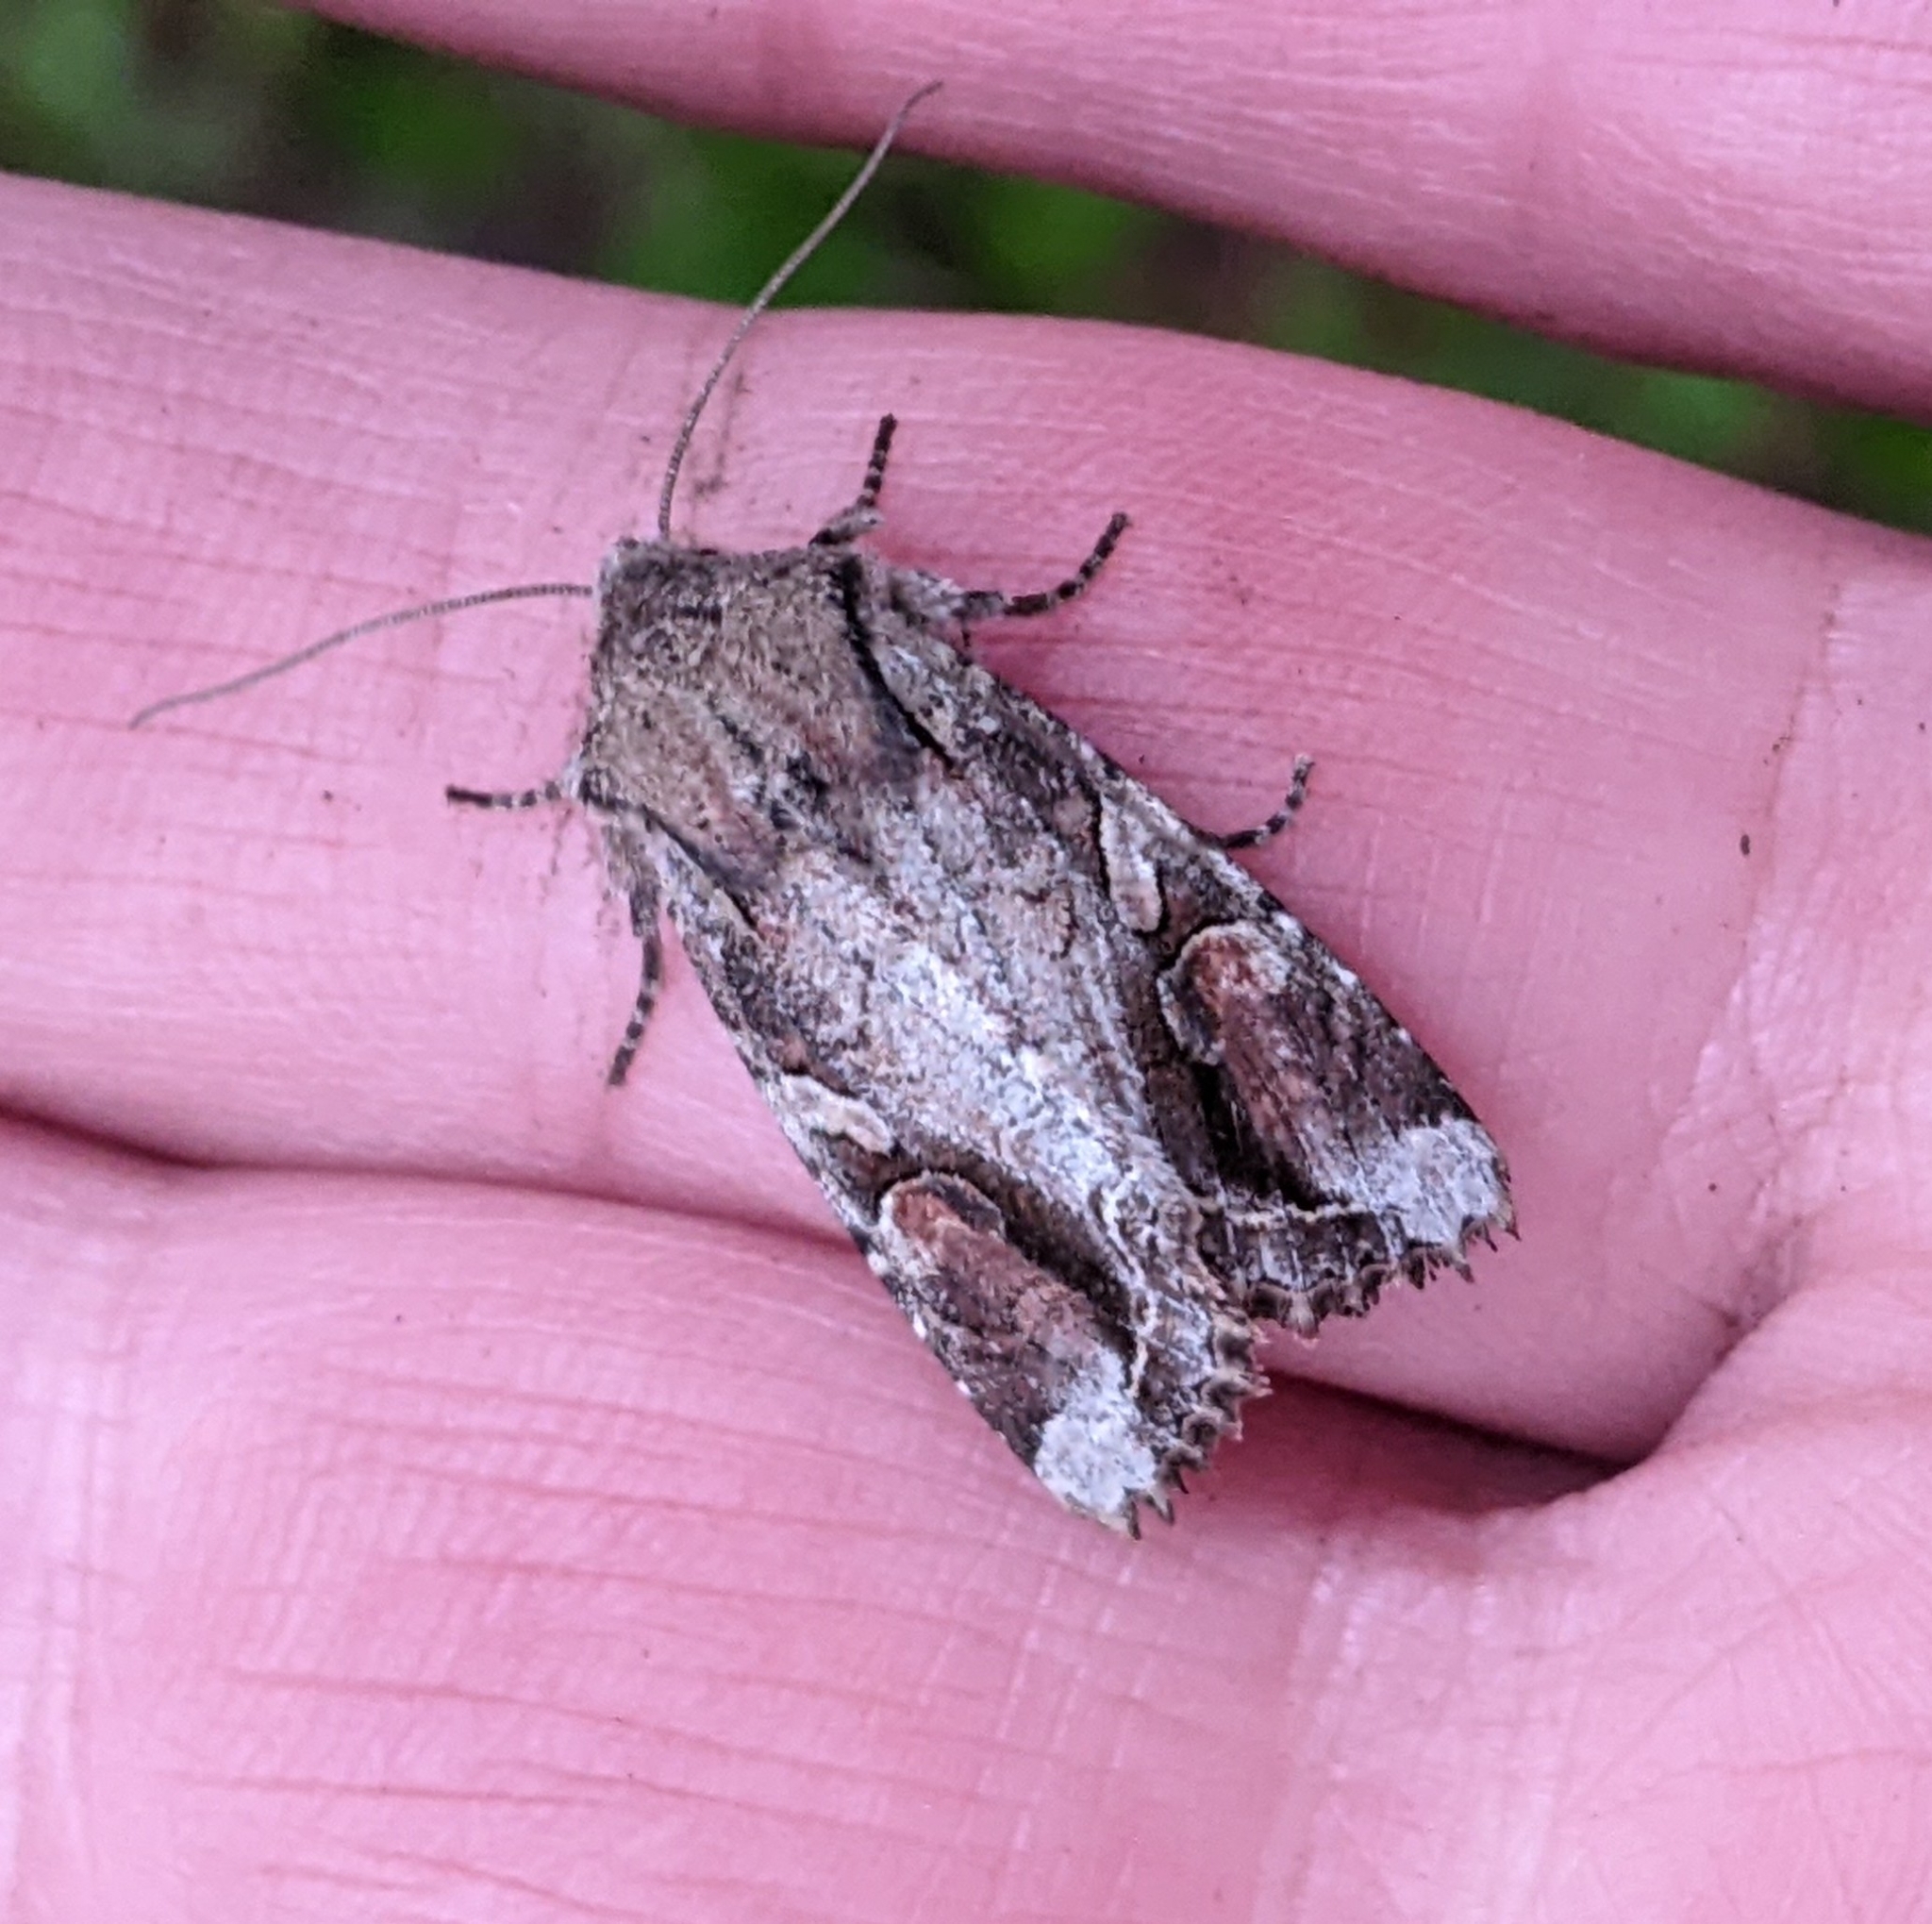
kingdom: Animalia
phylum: Arthropoda
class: Insecta
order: Lepidoptera
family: Noctuidae
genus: Egira
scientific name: Egira rubrica
